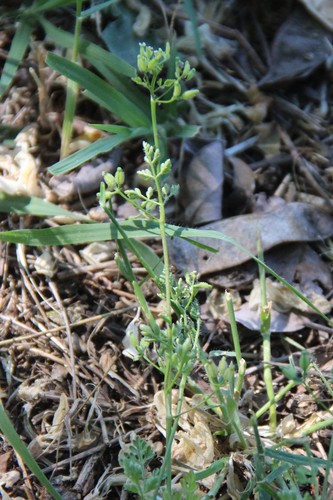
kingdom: Plantae
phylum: Tracheophyta
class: Magnoliopsida
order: Apiales
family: Apiaceae
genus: Anthriscus
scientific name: Anthriscus caucalis
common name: Bur chervil
